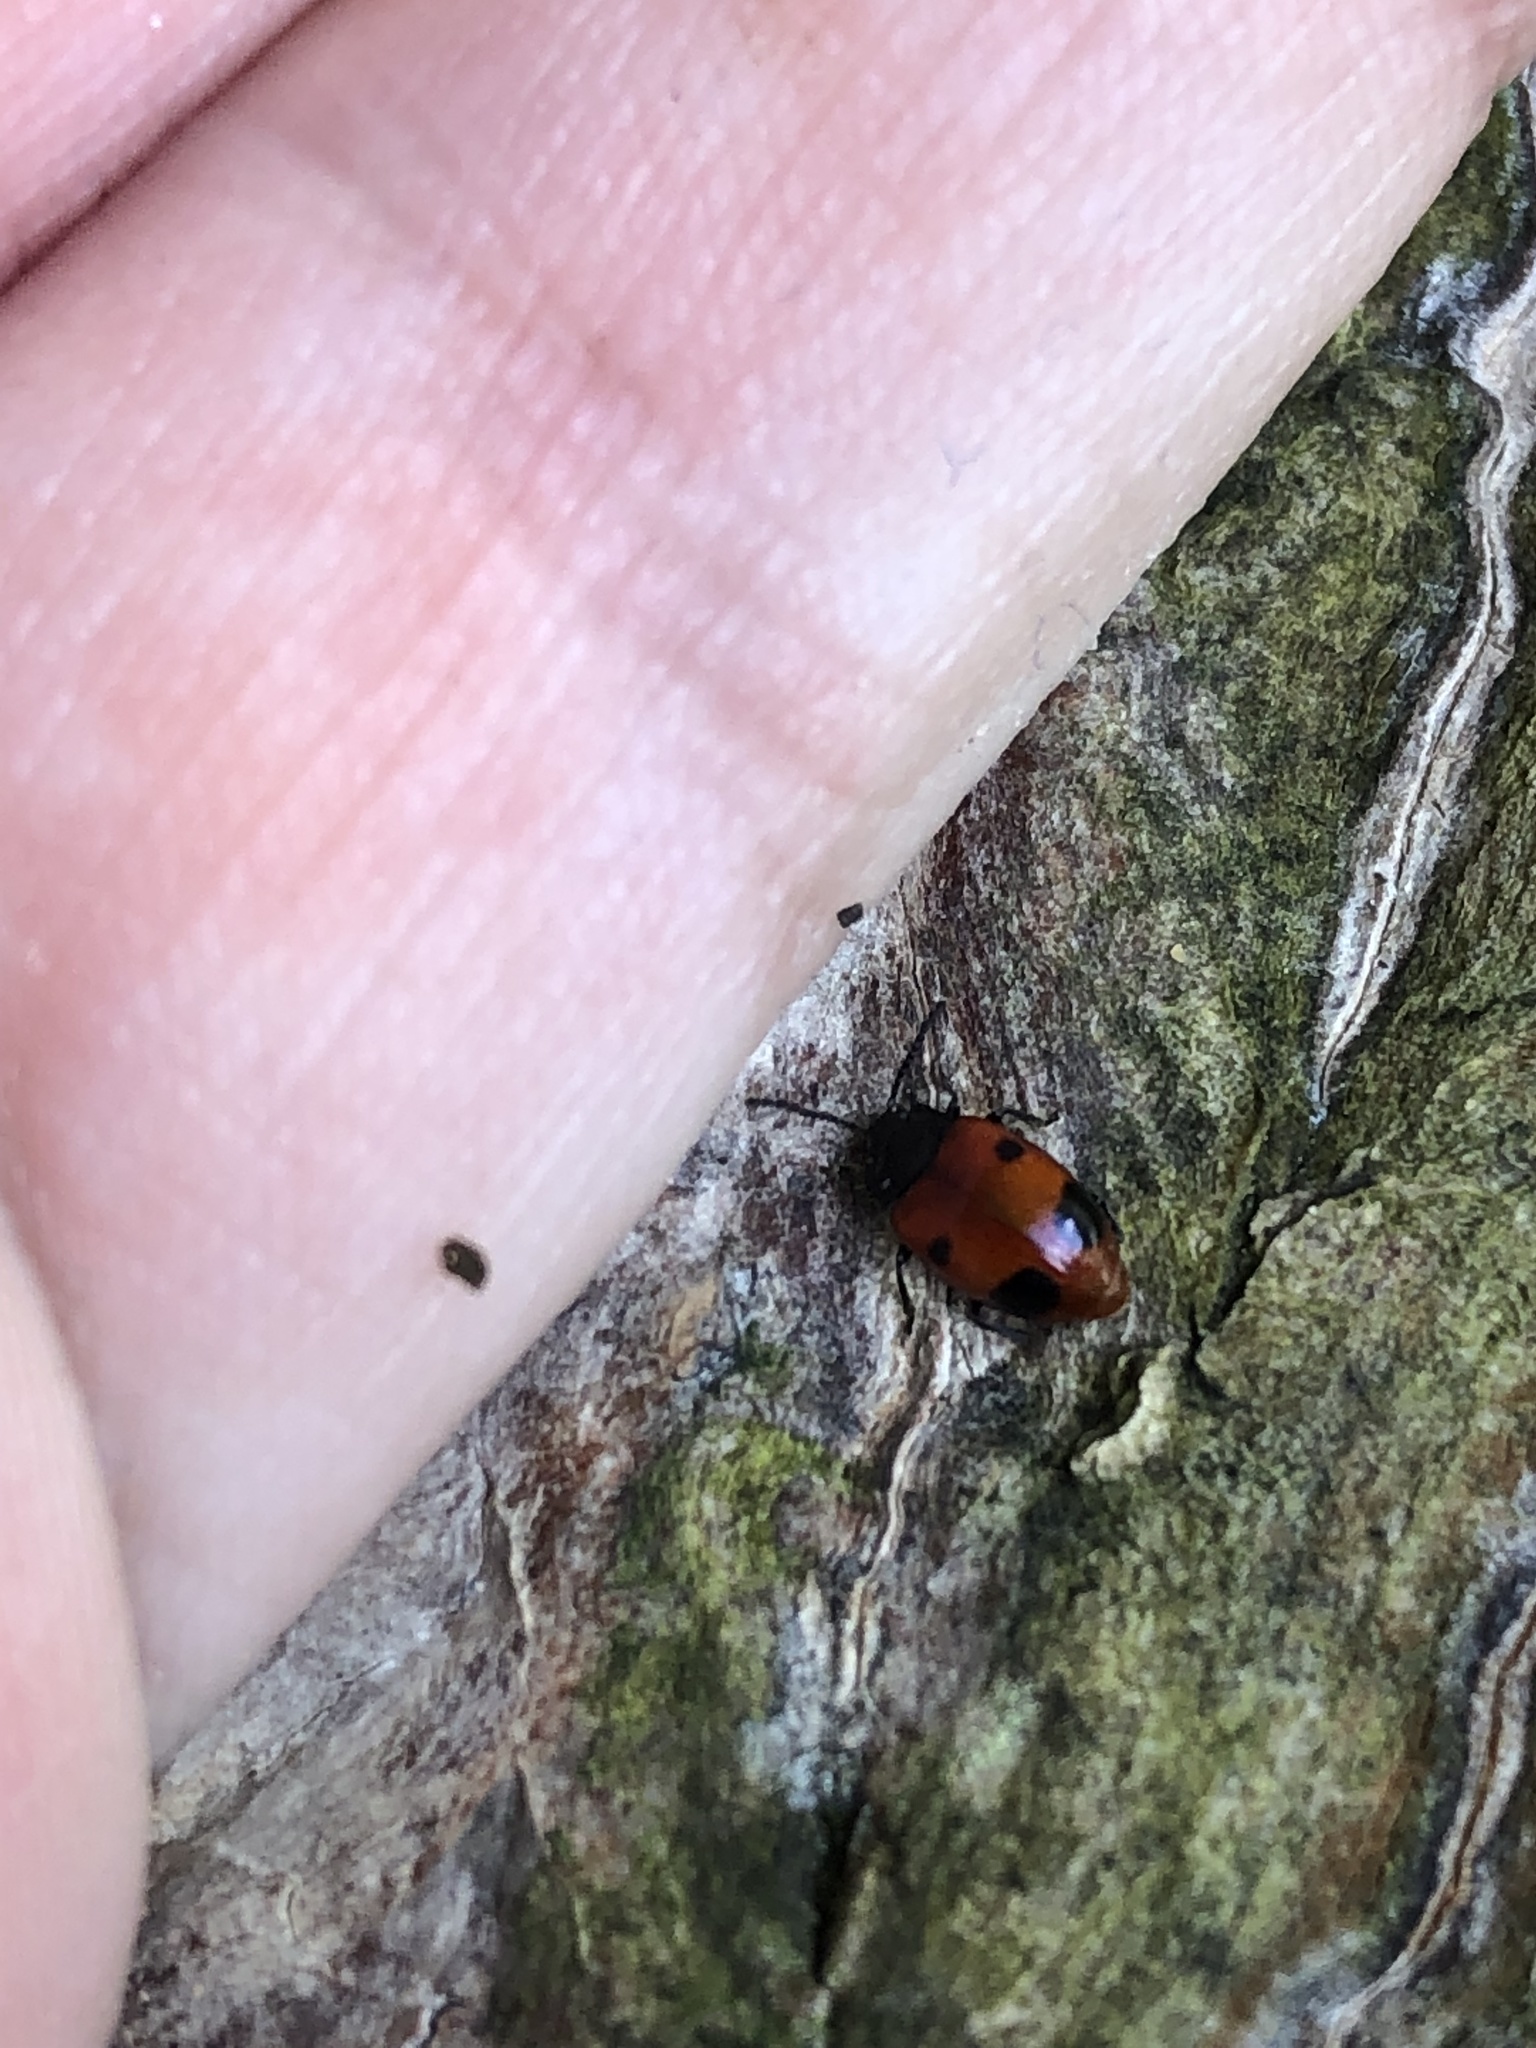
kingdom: Animalia
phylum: Arthropoda
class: Insecta
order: Coleoptera
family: Endomychidae
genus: Endomychus
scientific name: Endomychus biguttatus
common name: Handsome fungus beetle
